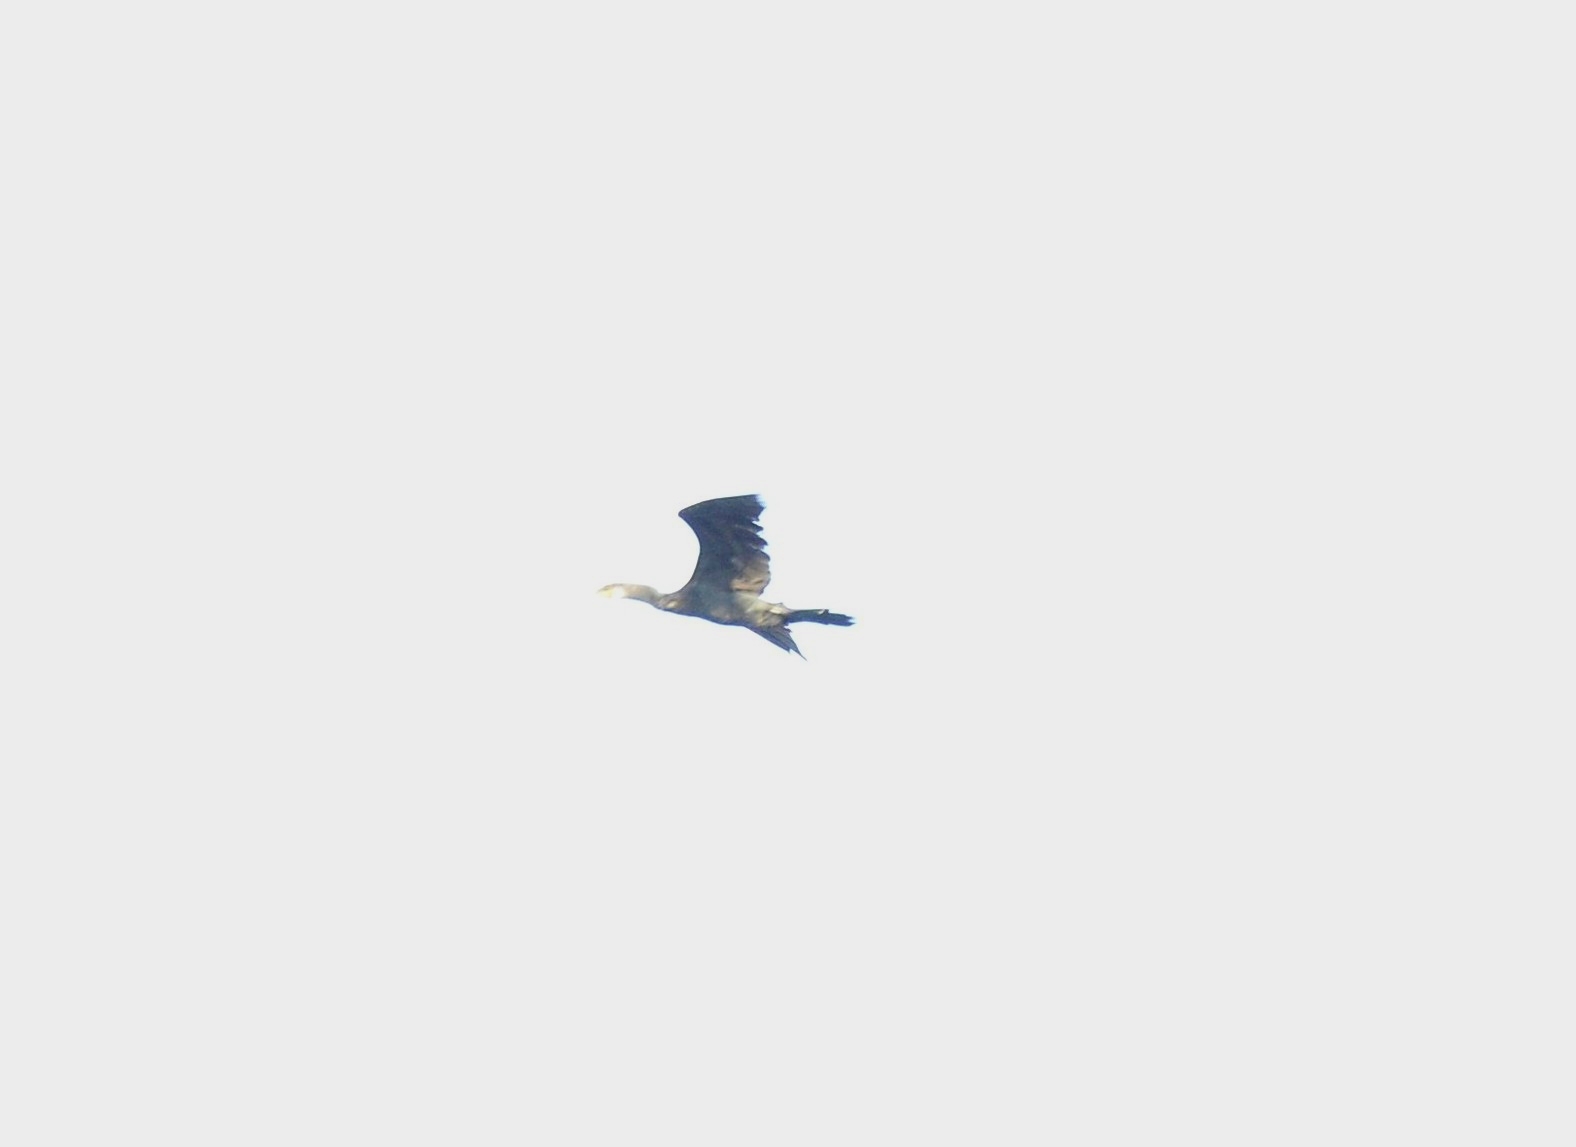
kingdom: Animalia
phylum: Chordata
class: Aves
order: Suliformes
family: Phalacrocoracidae
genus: Phalacrocorax
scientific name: Phalacrocorax fuscicollis
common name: Indian cormorant
